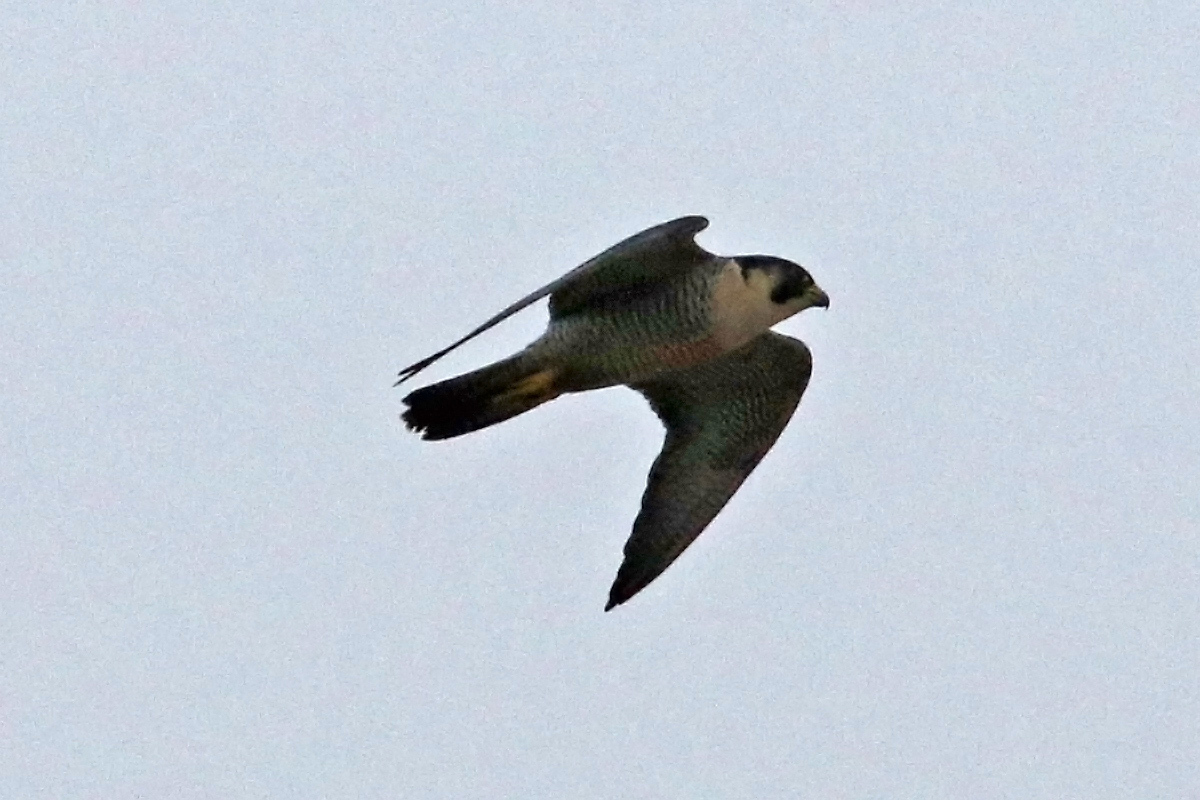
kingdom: Animalia
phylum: Chordata
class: Aves
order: Falconiformes
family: Falconidae
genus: Falco
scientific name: Falco peregrinus
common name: Peregrine falcon
